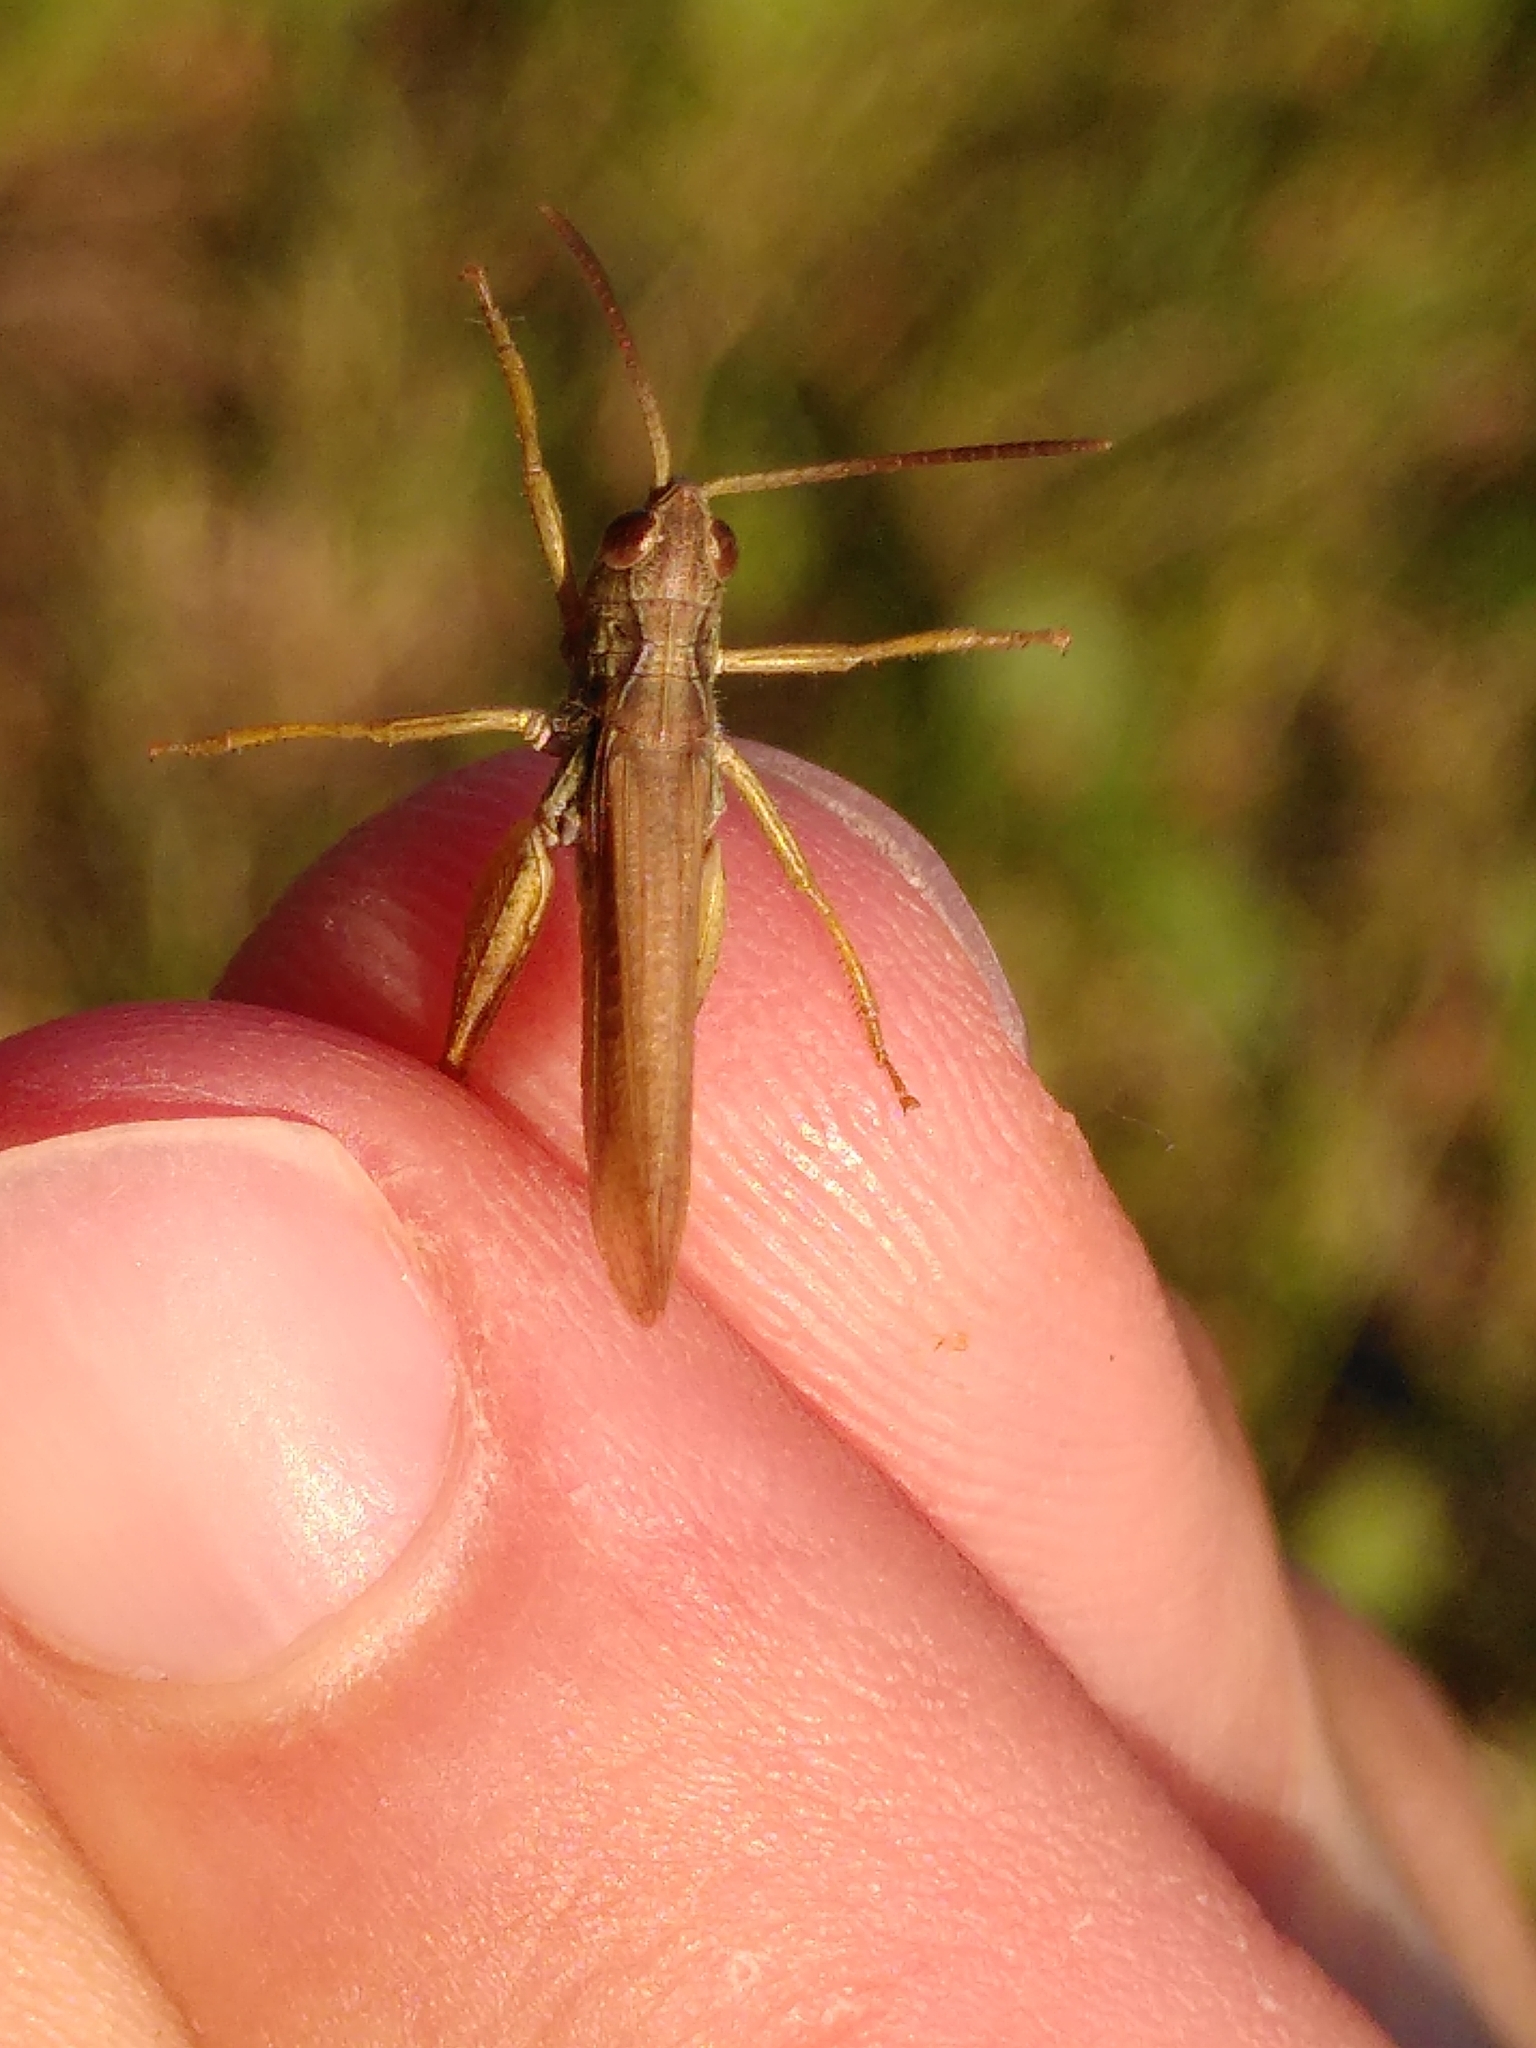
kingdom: Animalia
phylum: Arthropoda
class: Insecta
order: Orthoptera
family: Acrididae
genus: Chorthippus
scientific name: Chorthippus apricarius
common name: Upland field grasshopper
